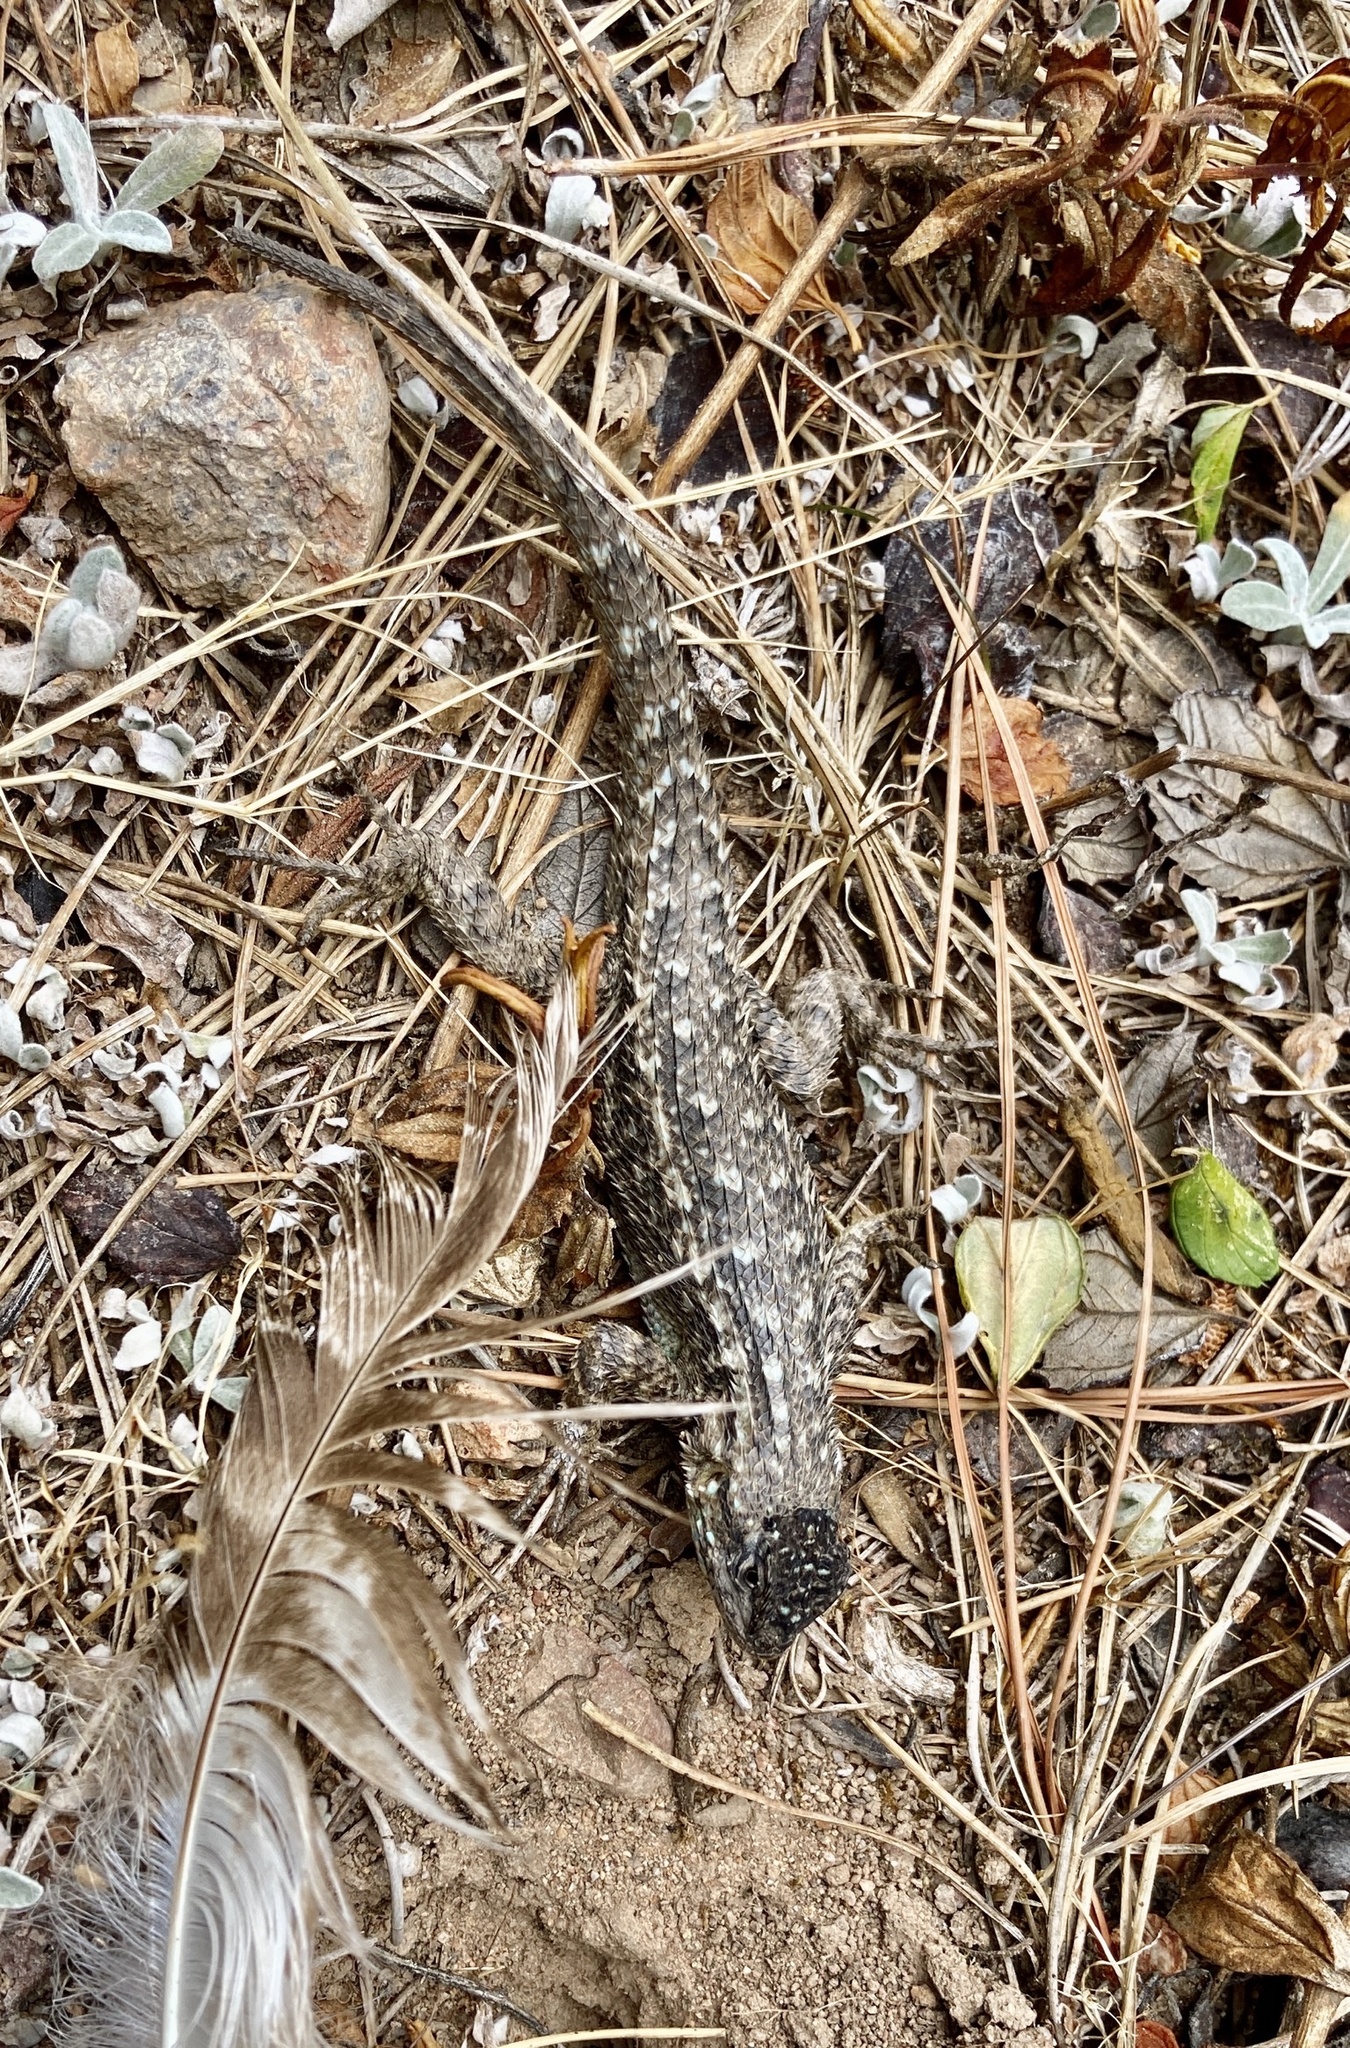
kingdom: Animalia
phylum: Chordata
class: Squamata
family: Phrynosomatidae
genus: Sceloporus
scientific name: Sceloporus occidentalis
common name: Western fence lizard
